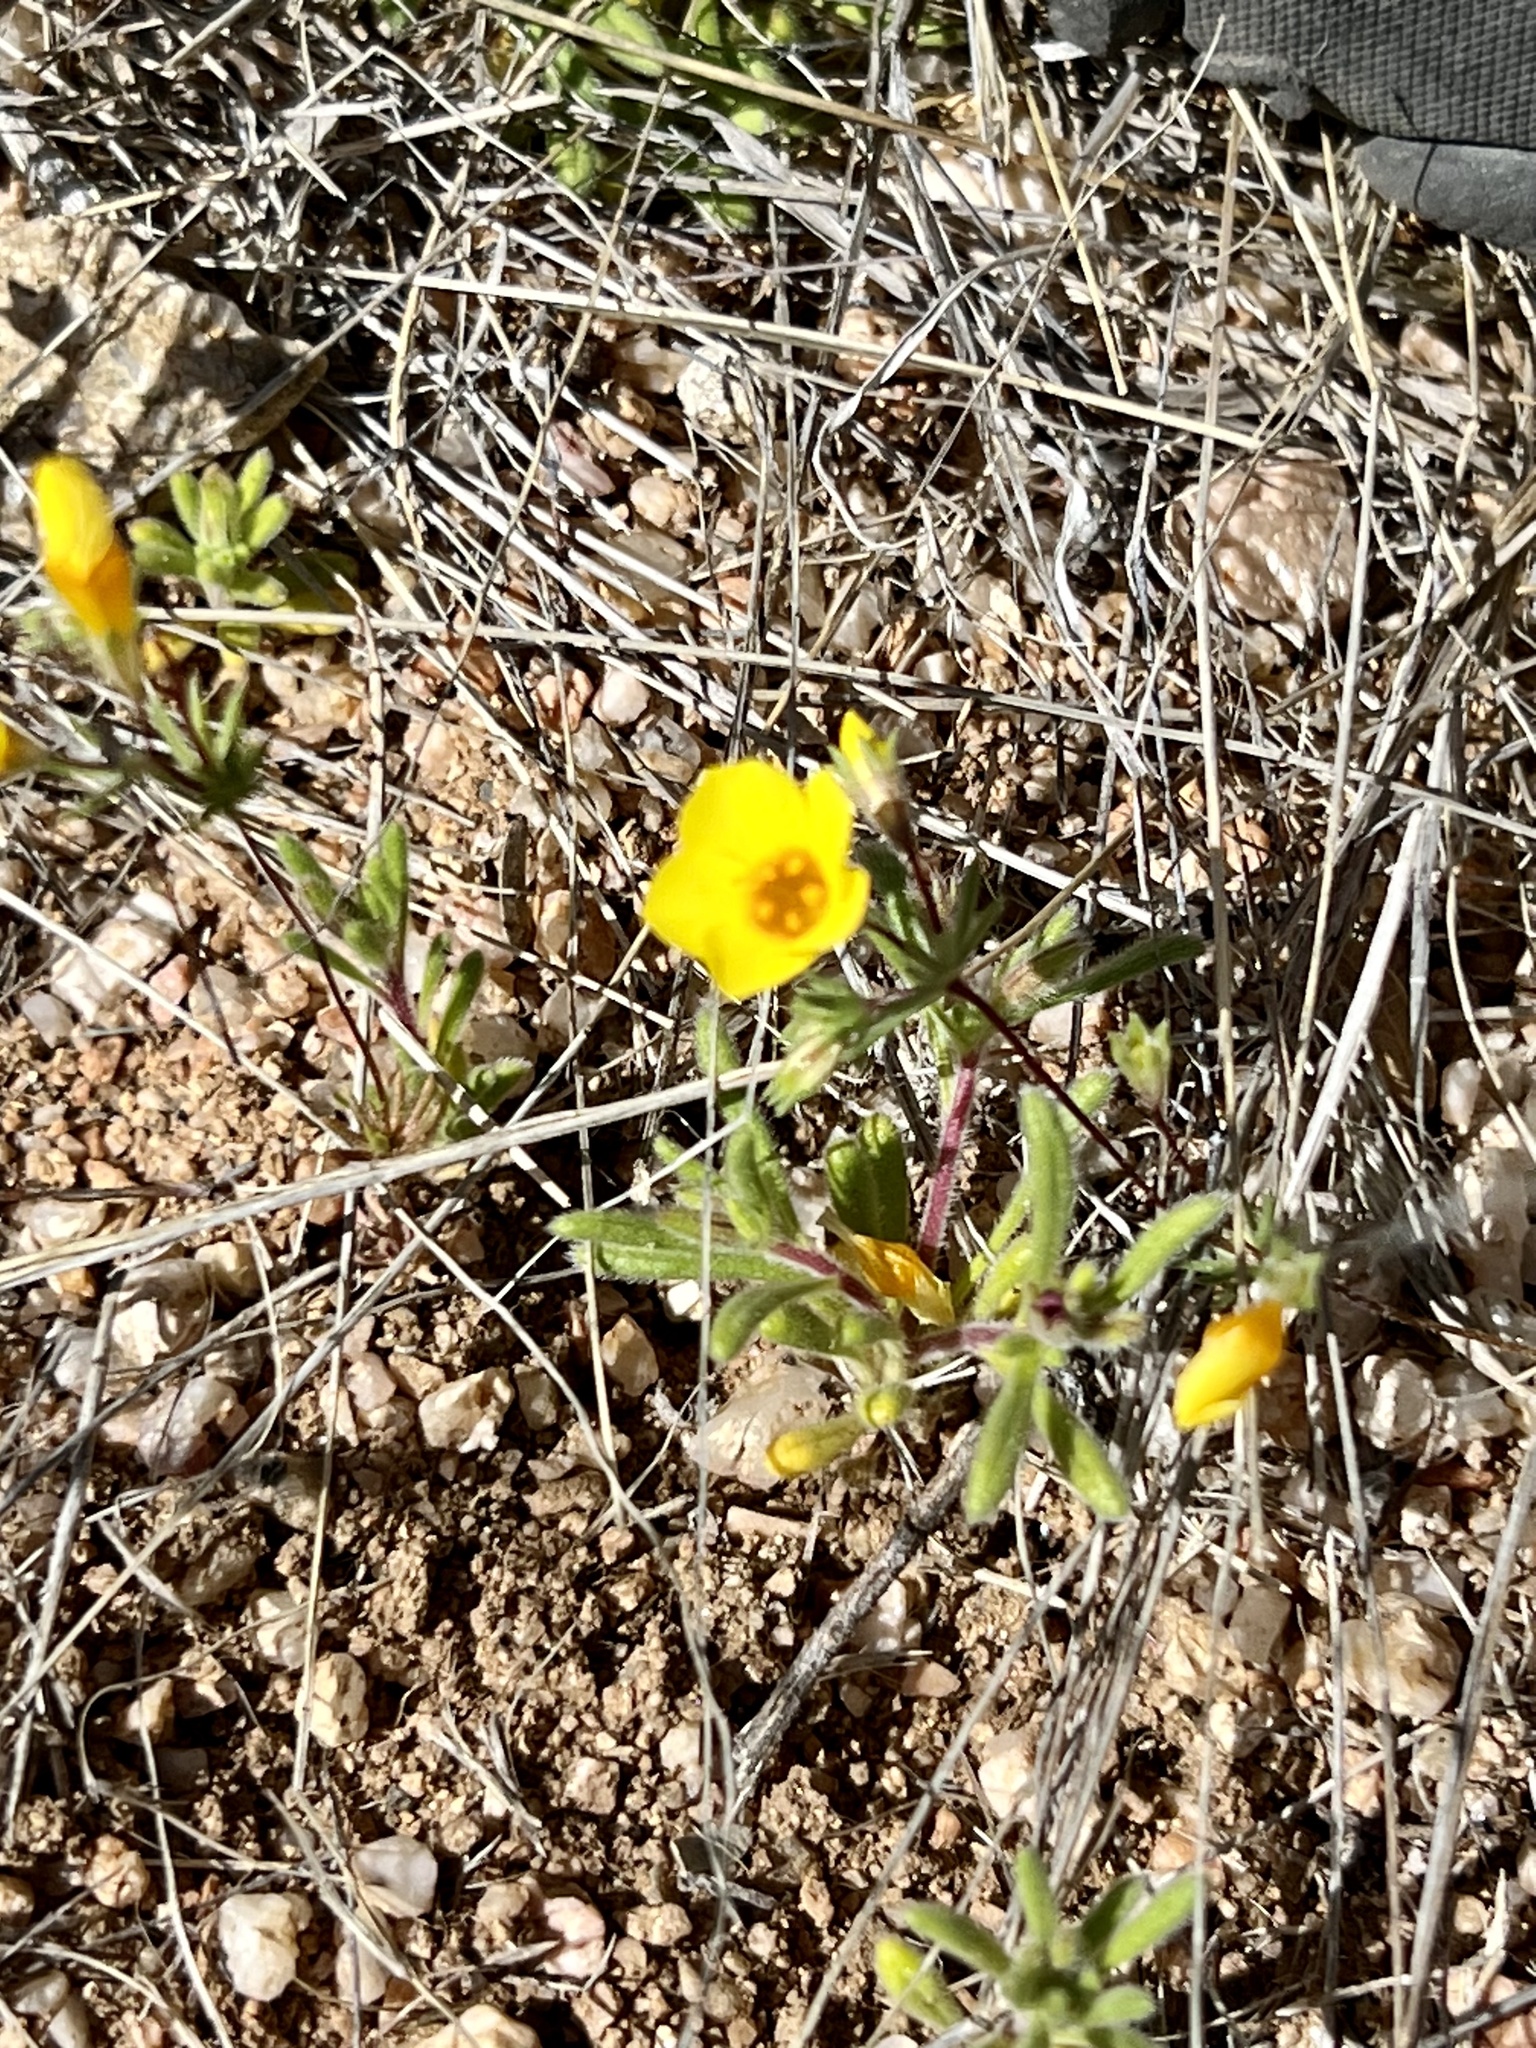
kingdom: Plantae
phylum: Tracheophyta
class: Magnoliopsida
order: Ericales
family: Polemoniaceae
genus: Leptosiphon
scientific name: Leptosiphon chrysanthus
